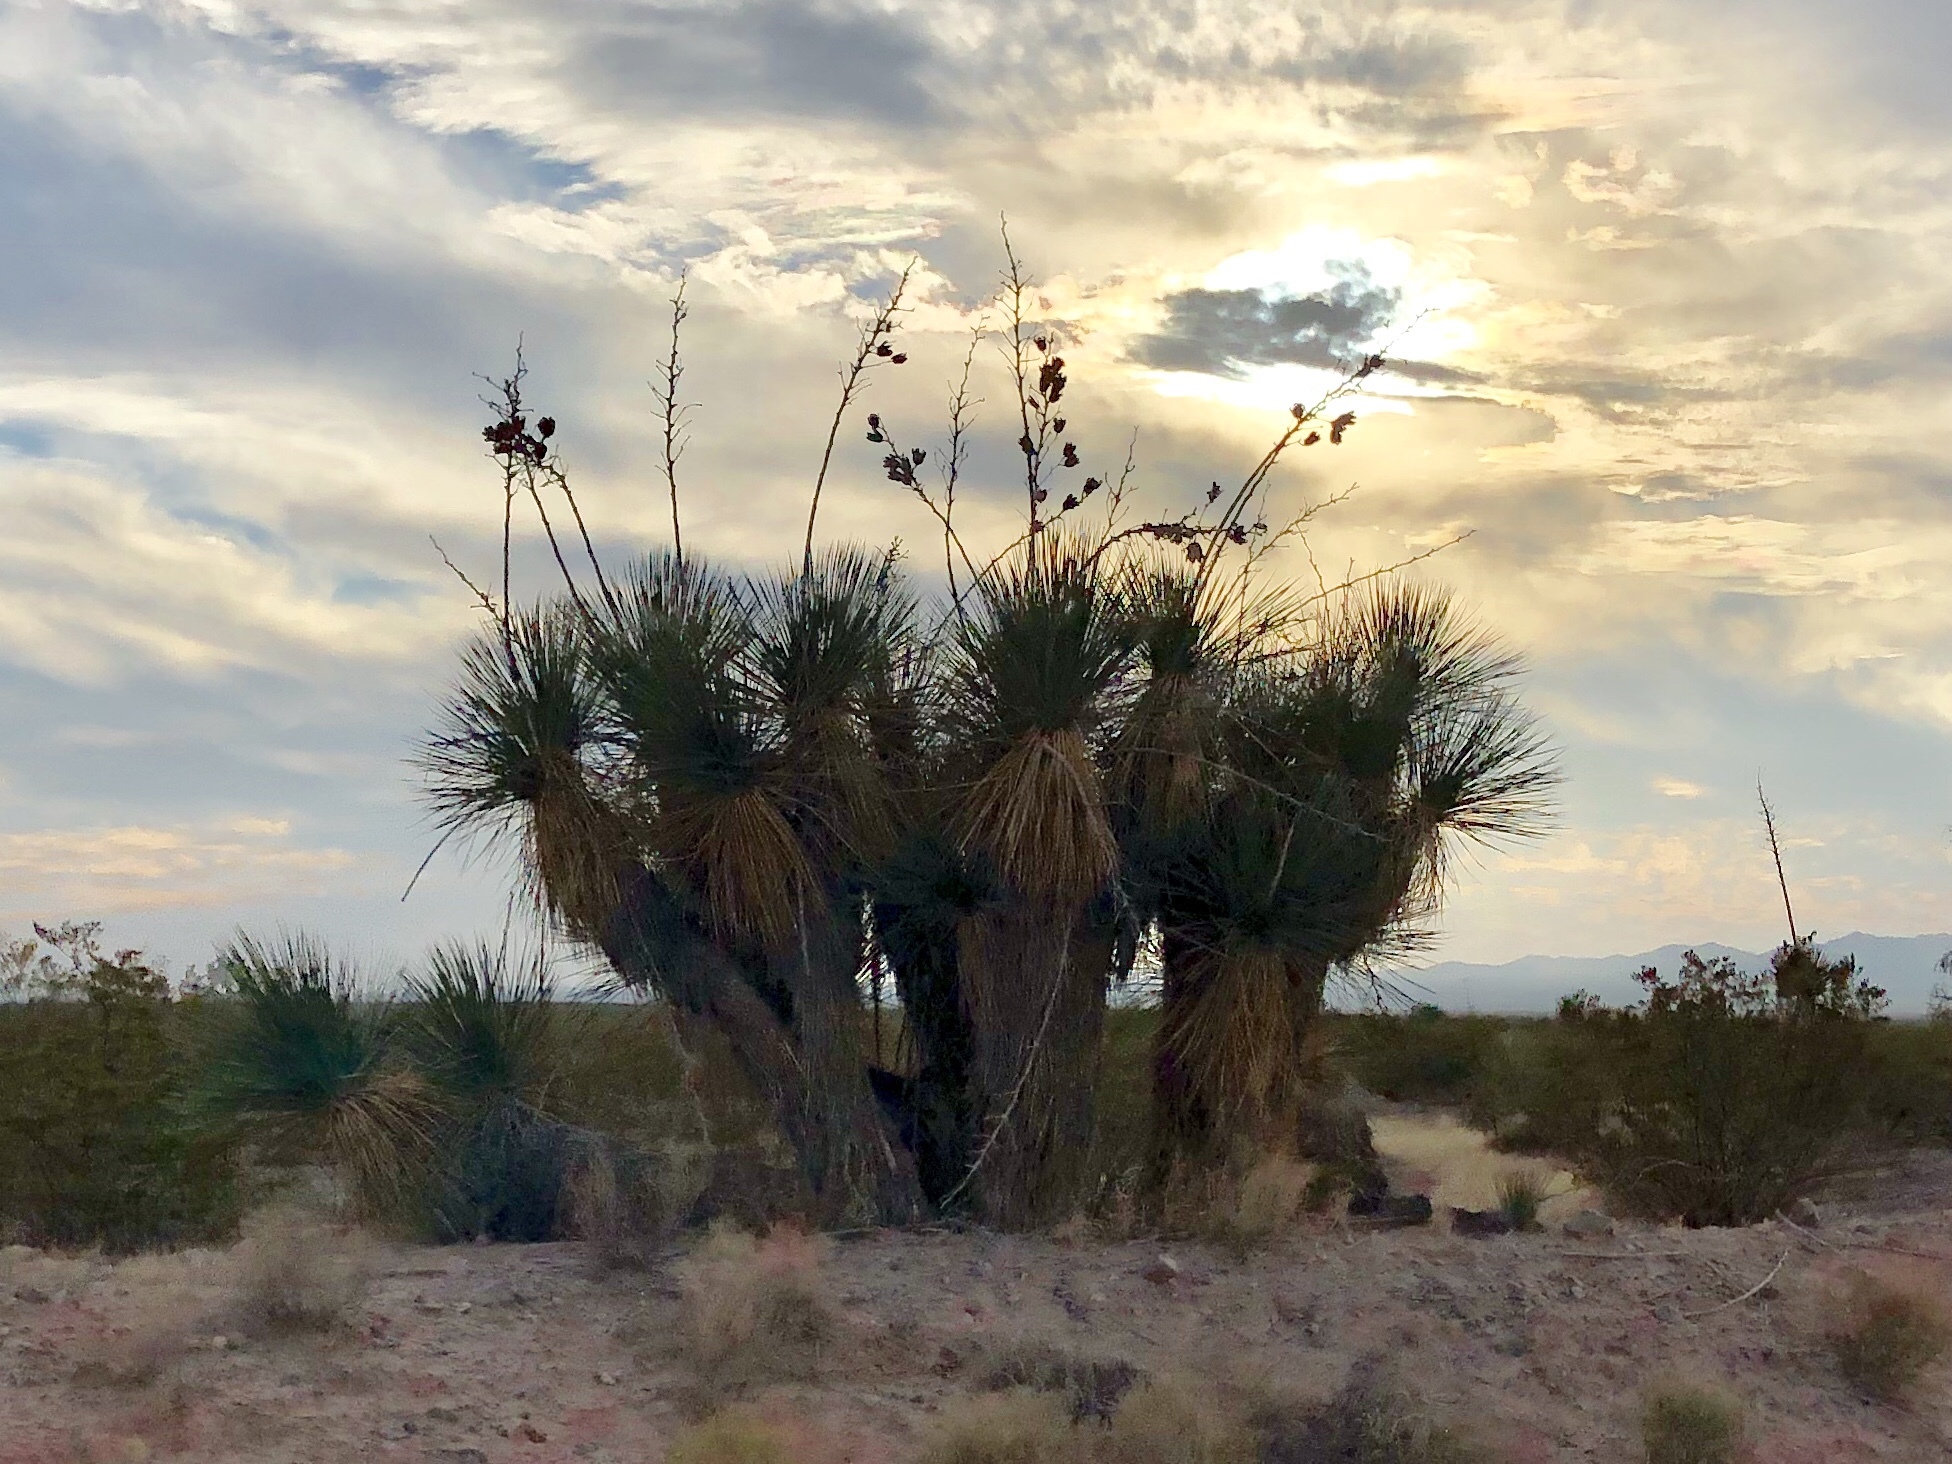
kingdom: Plantae
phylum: Tracheophyta
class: Liliopsida
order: Asparagales
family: Asparagaceae
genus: Yucca
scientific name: Yucca elata
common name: Palmella
